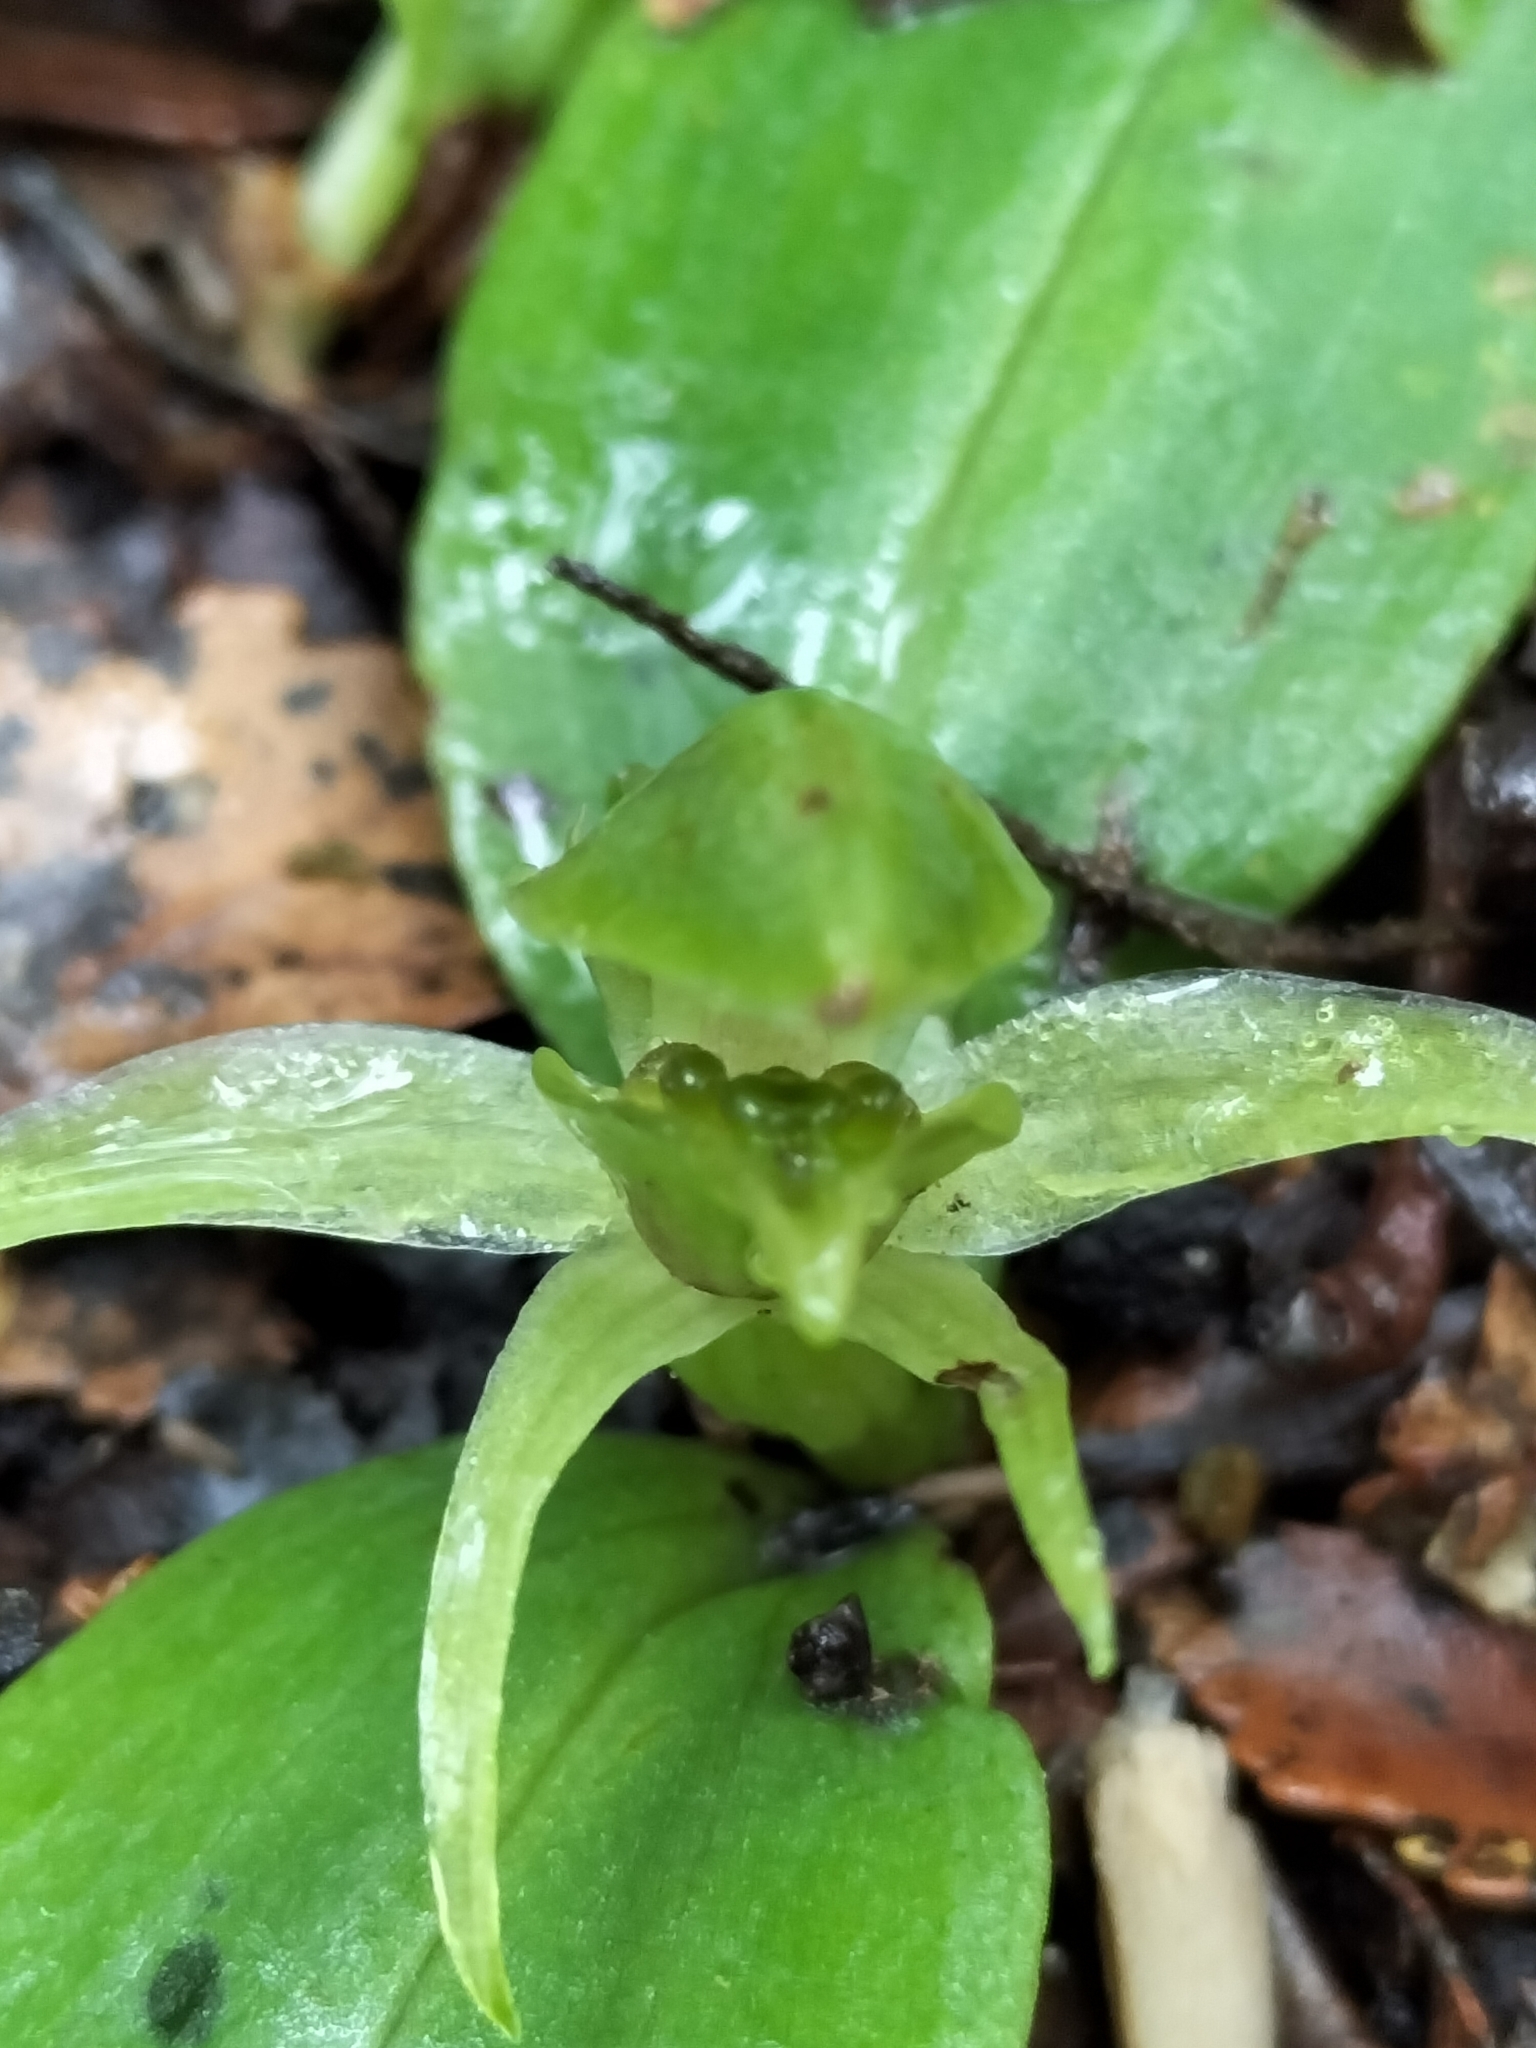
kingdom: Plantae
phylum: Tracheophyta
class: Liliopsida
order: Asparagales
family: Orchidaceae
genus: Chiloglottis
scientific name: Chiloglottis cornuta
